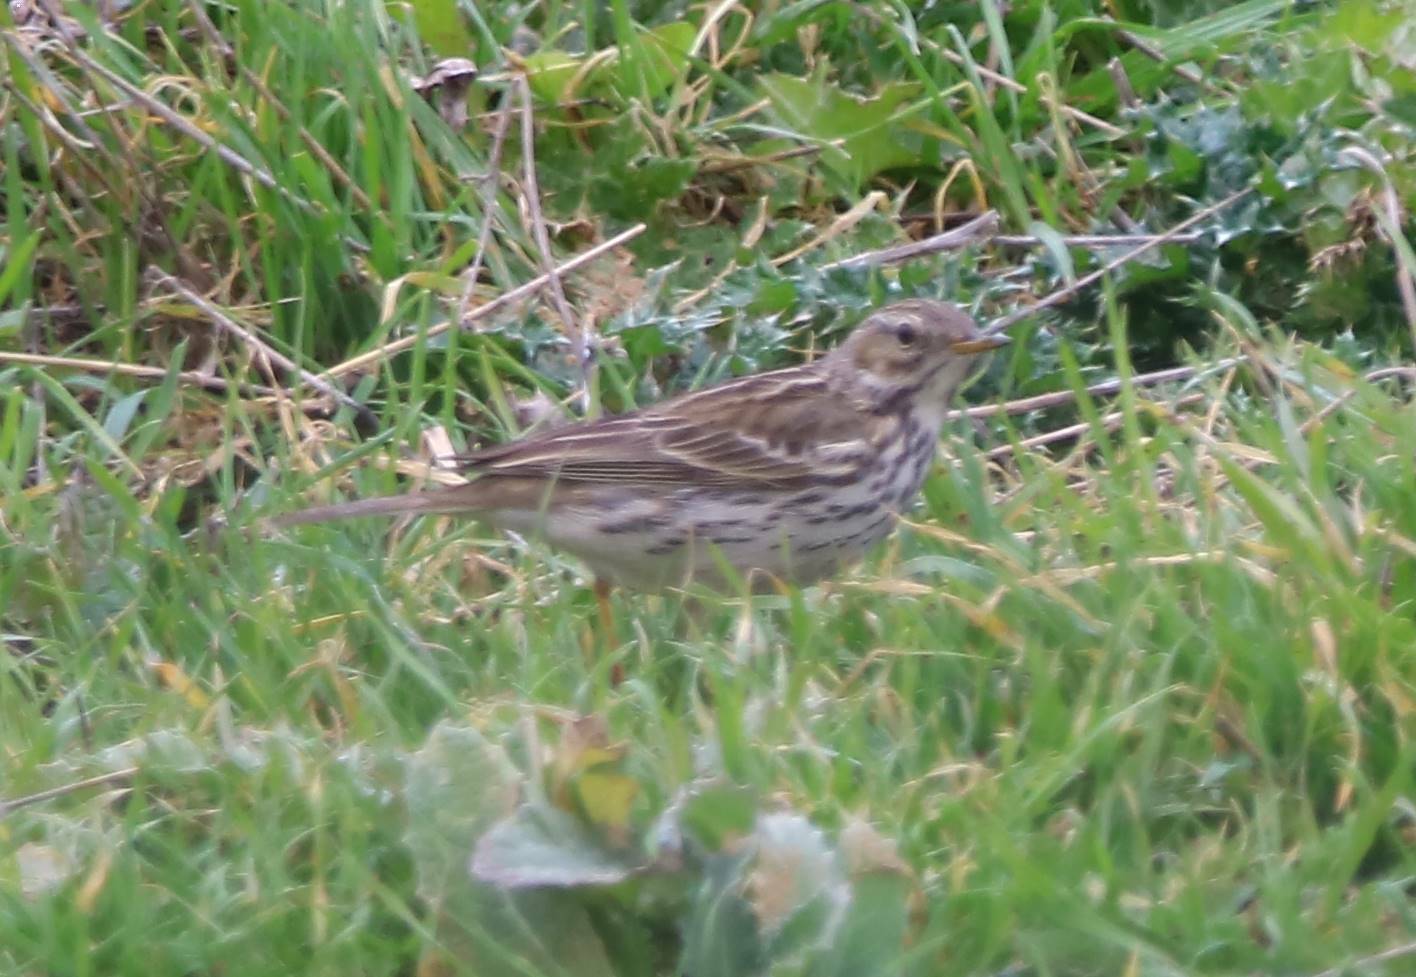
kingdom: Animalia
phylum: Chordata
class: Aves
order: Passeriformes
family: Motacillidae
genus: Anthus
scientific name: Anthus pratensis
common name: Meadow pipit
